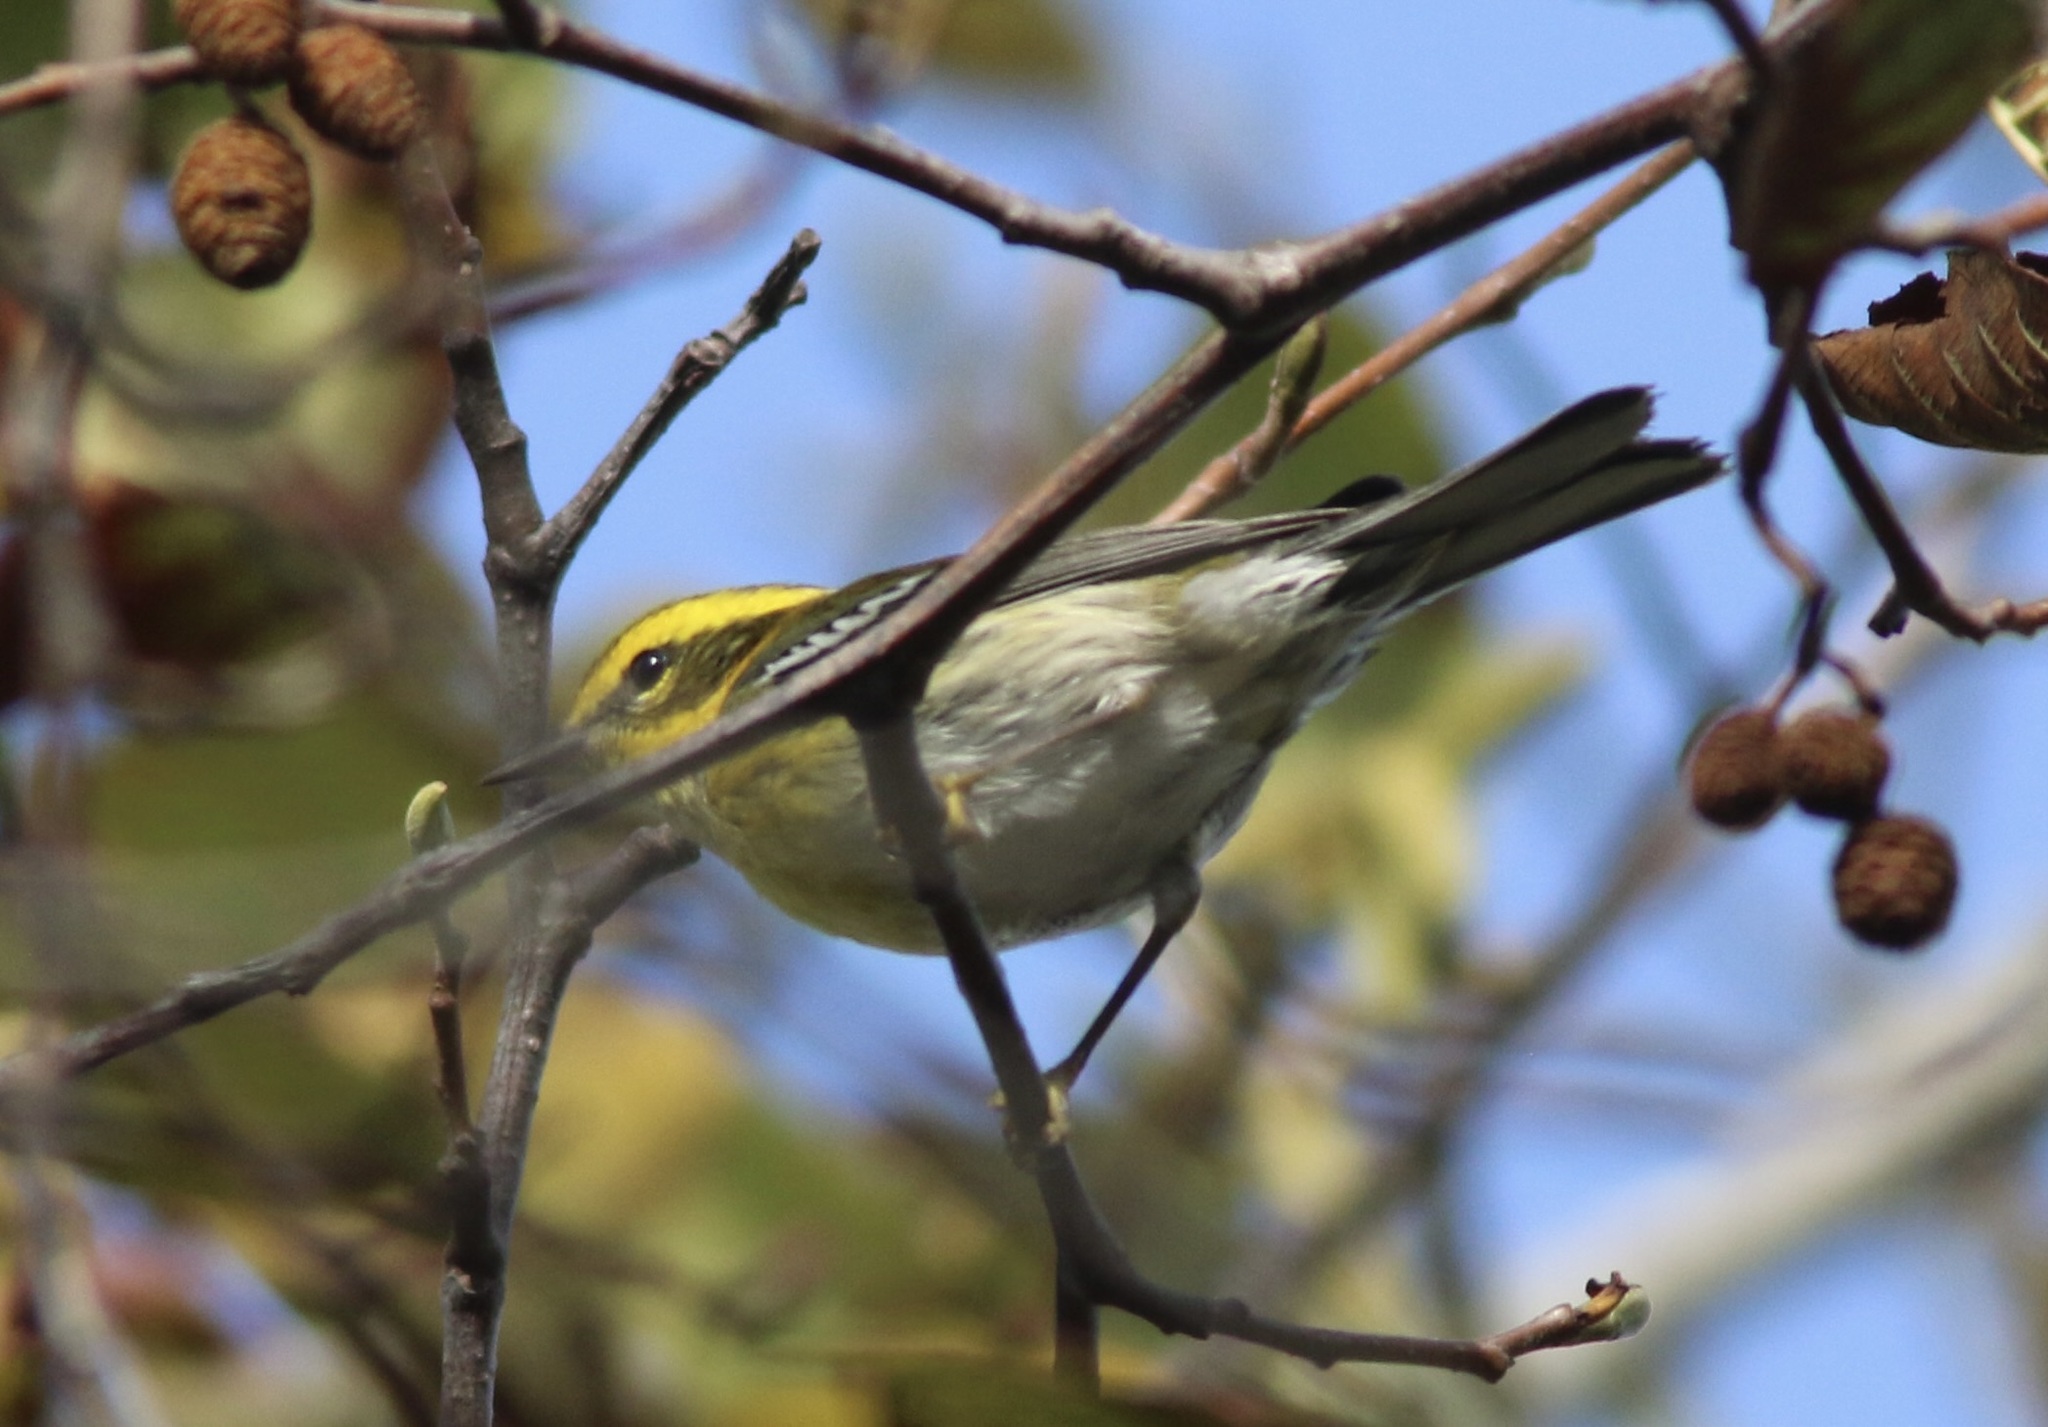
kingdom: Animalia
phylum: Chordata
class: Aves
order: Passeriformes
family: Parulidae
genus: Setophaga
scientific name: Setophaga townsendi
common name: Townsend's warbler
